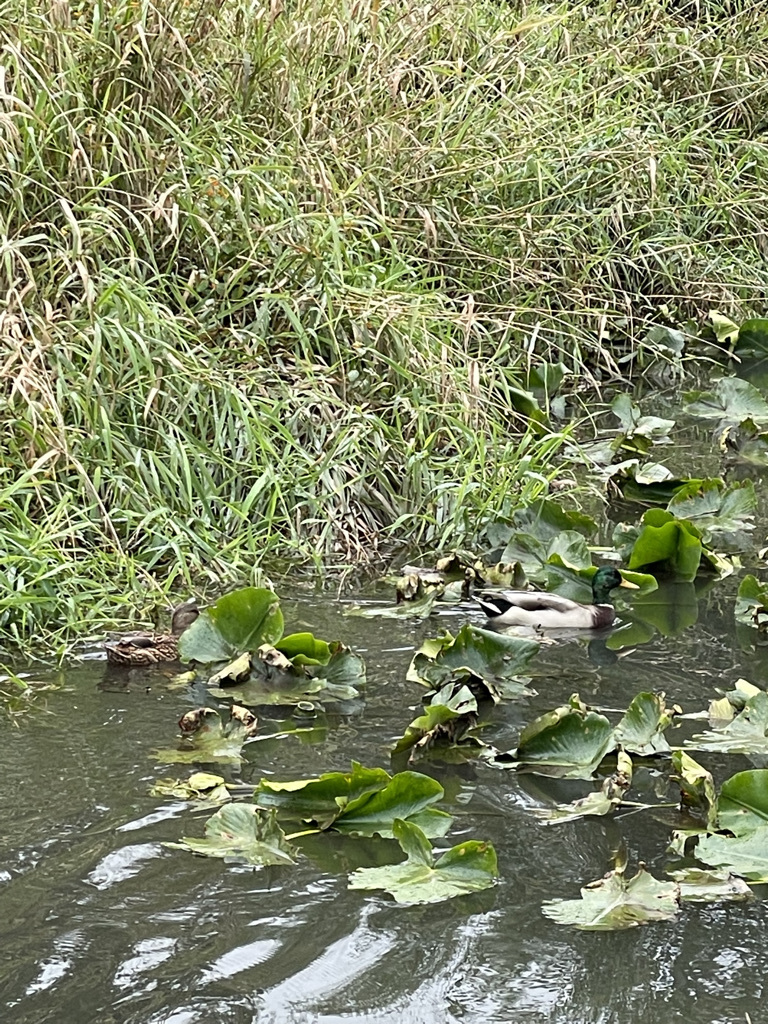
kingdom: Animalia
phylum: Chordata
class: Aves
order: Anseriformes
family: Anatidae
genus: Anas
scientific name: Anas platyrhynchos
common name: Mallard
